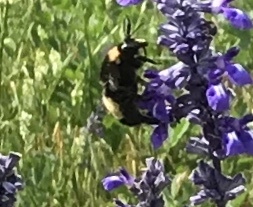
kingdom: Animalia
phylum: Arthropoda
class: Insecta
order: Hymenoptera
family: Apidae
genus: Bombus
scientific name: Bombus pensylvanicus
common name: Bumble bee
